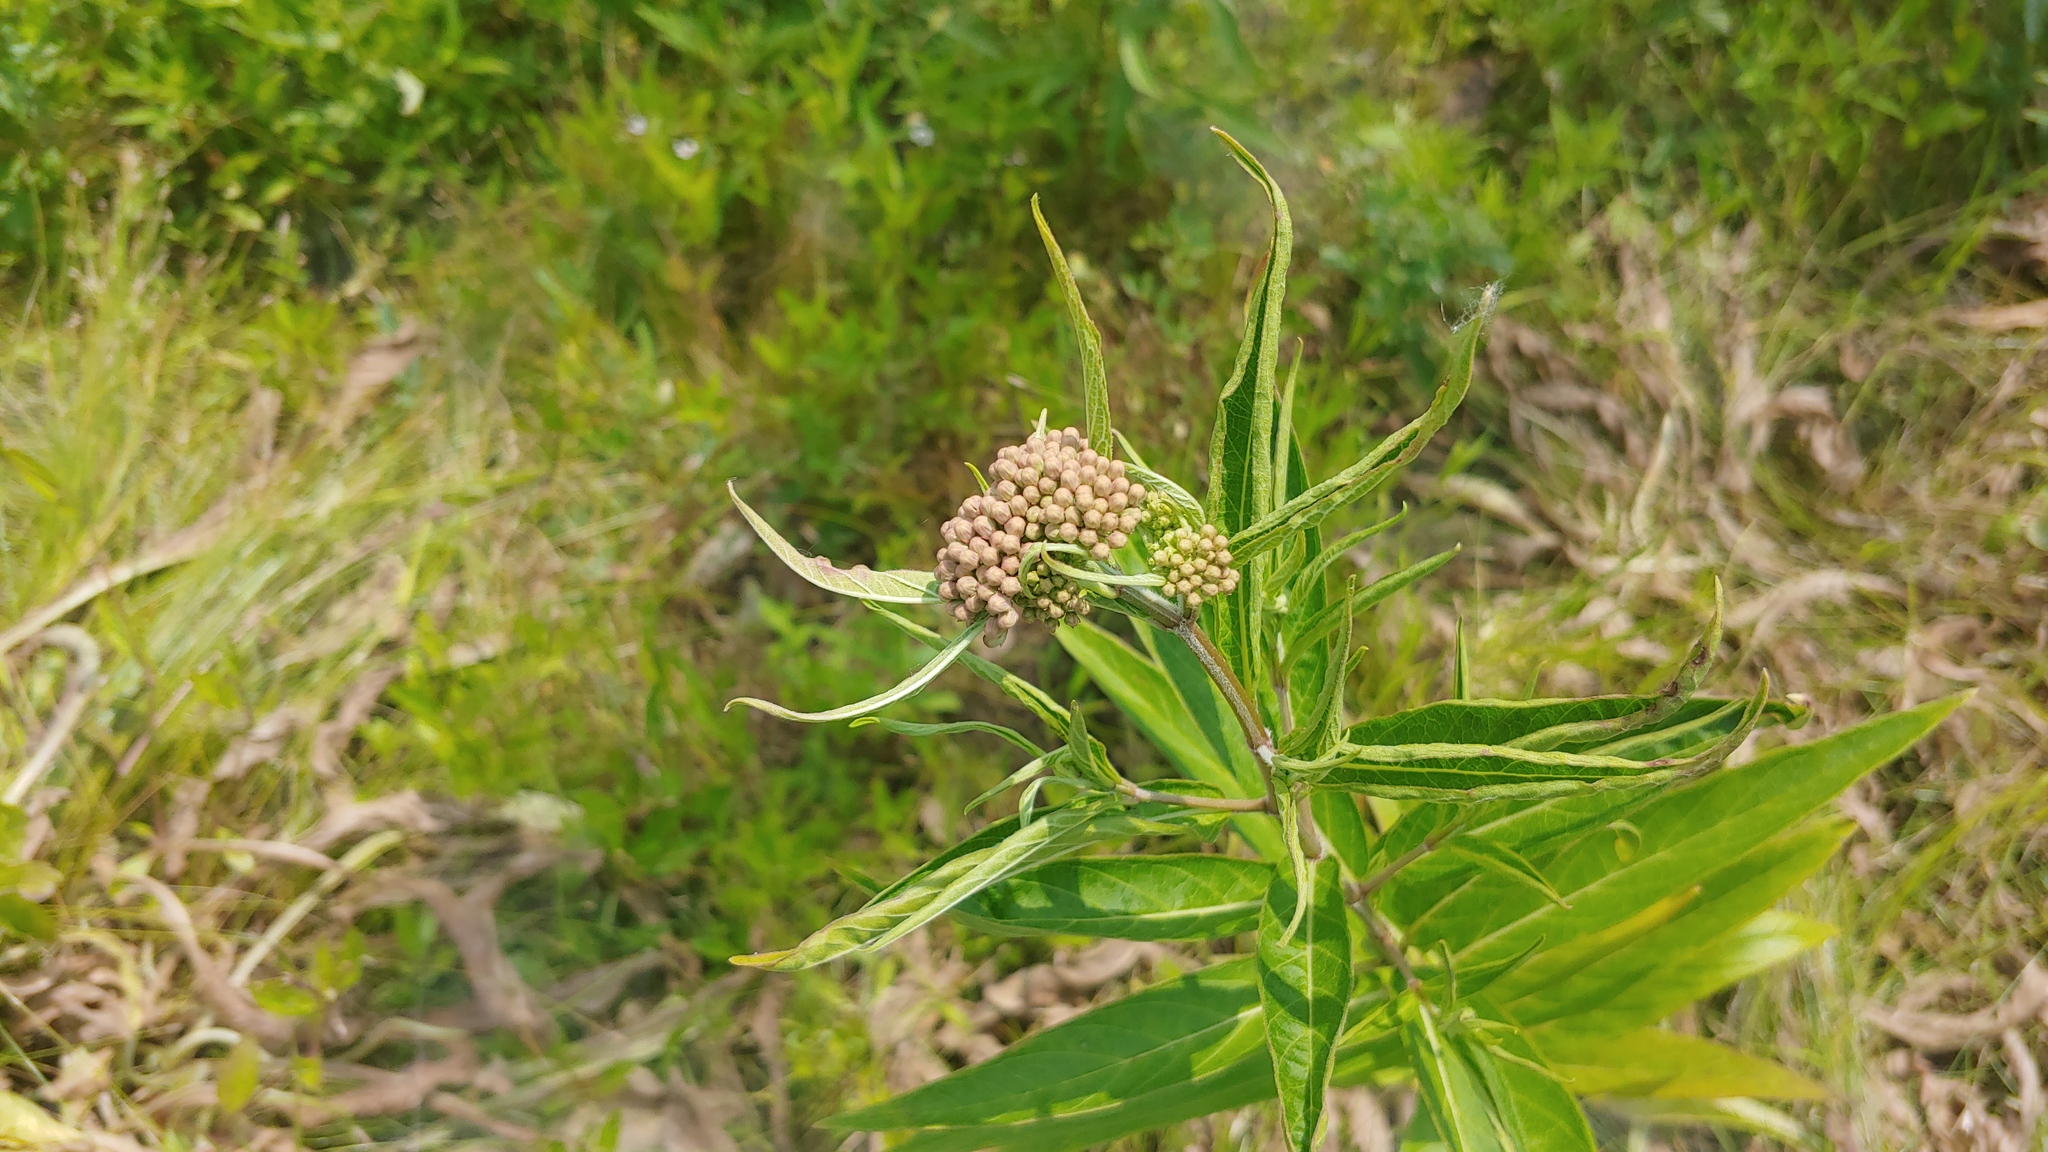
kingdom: Plantae
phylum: Tracheophyta
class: Magnoliopsida
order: Gentianales
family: Apocynaceae
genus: Asclepias
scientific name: Asclepias incarnata
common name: Swamp milkweed
